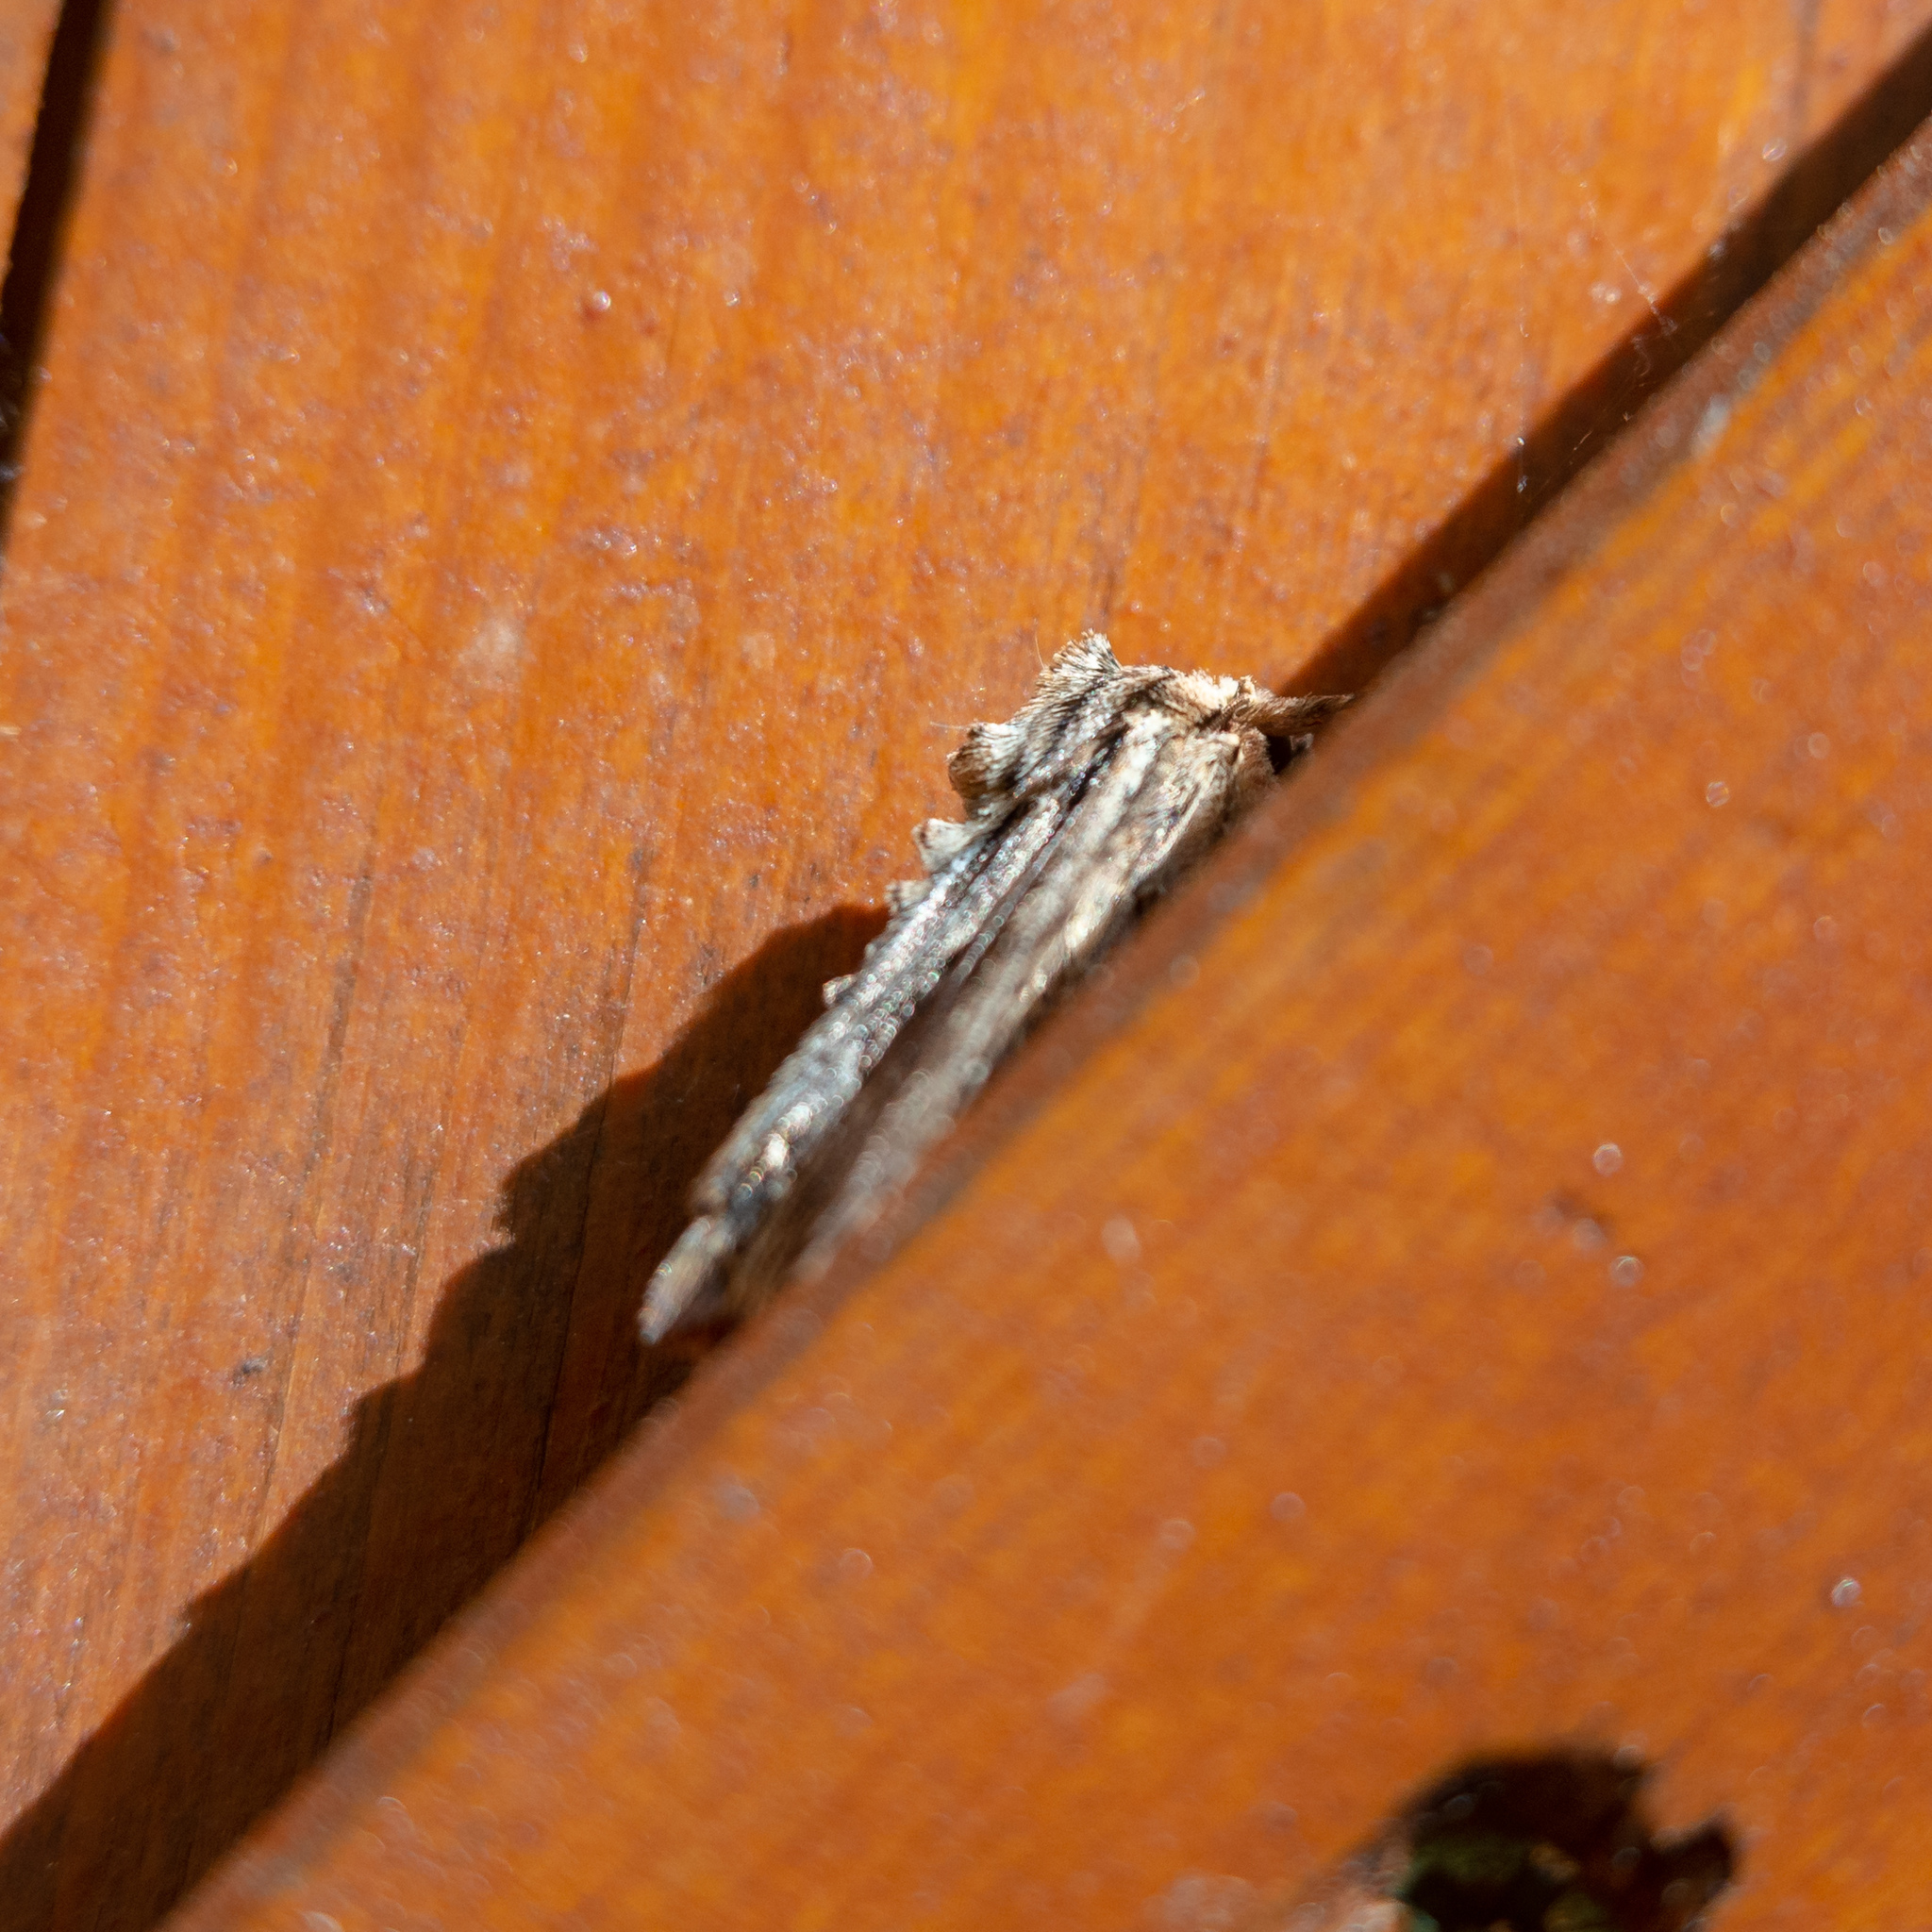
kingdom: Animalia
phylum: Arthropoda
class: Insecta
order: Lepidoptera
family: Noctuidae
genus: Apamea
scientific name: Apamea monoglypha
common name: Dark arches
